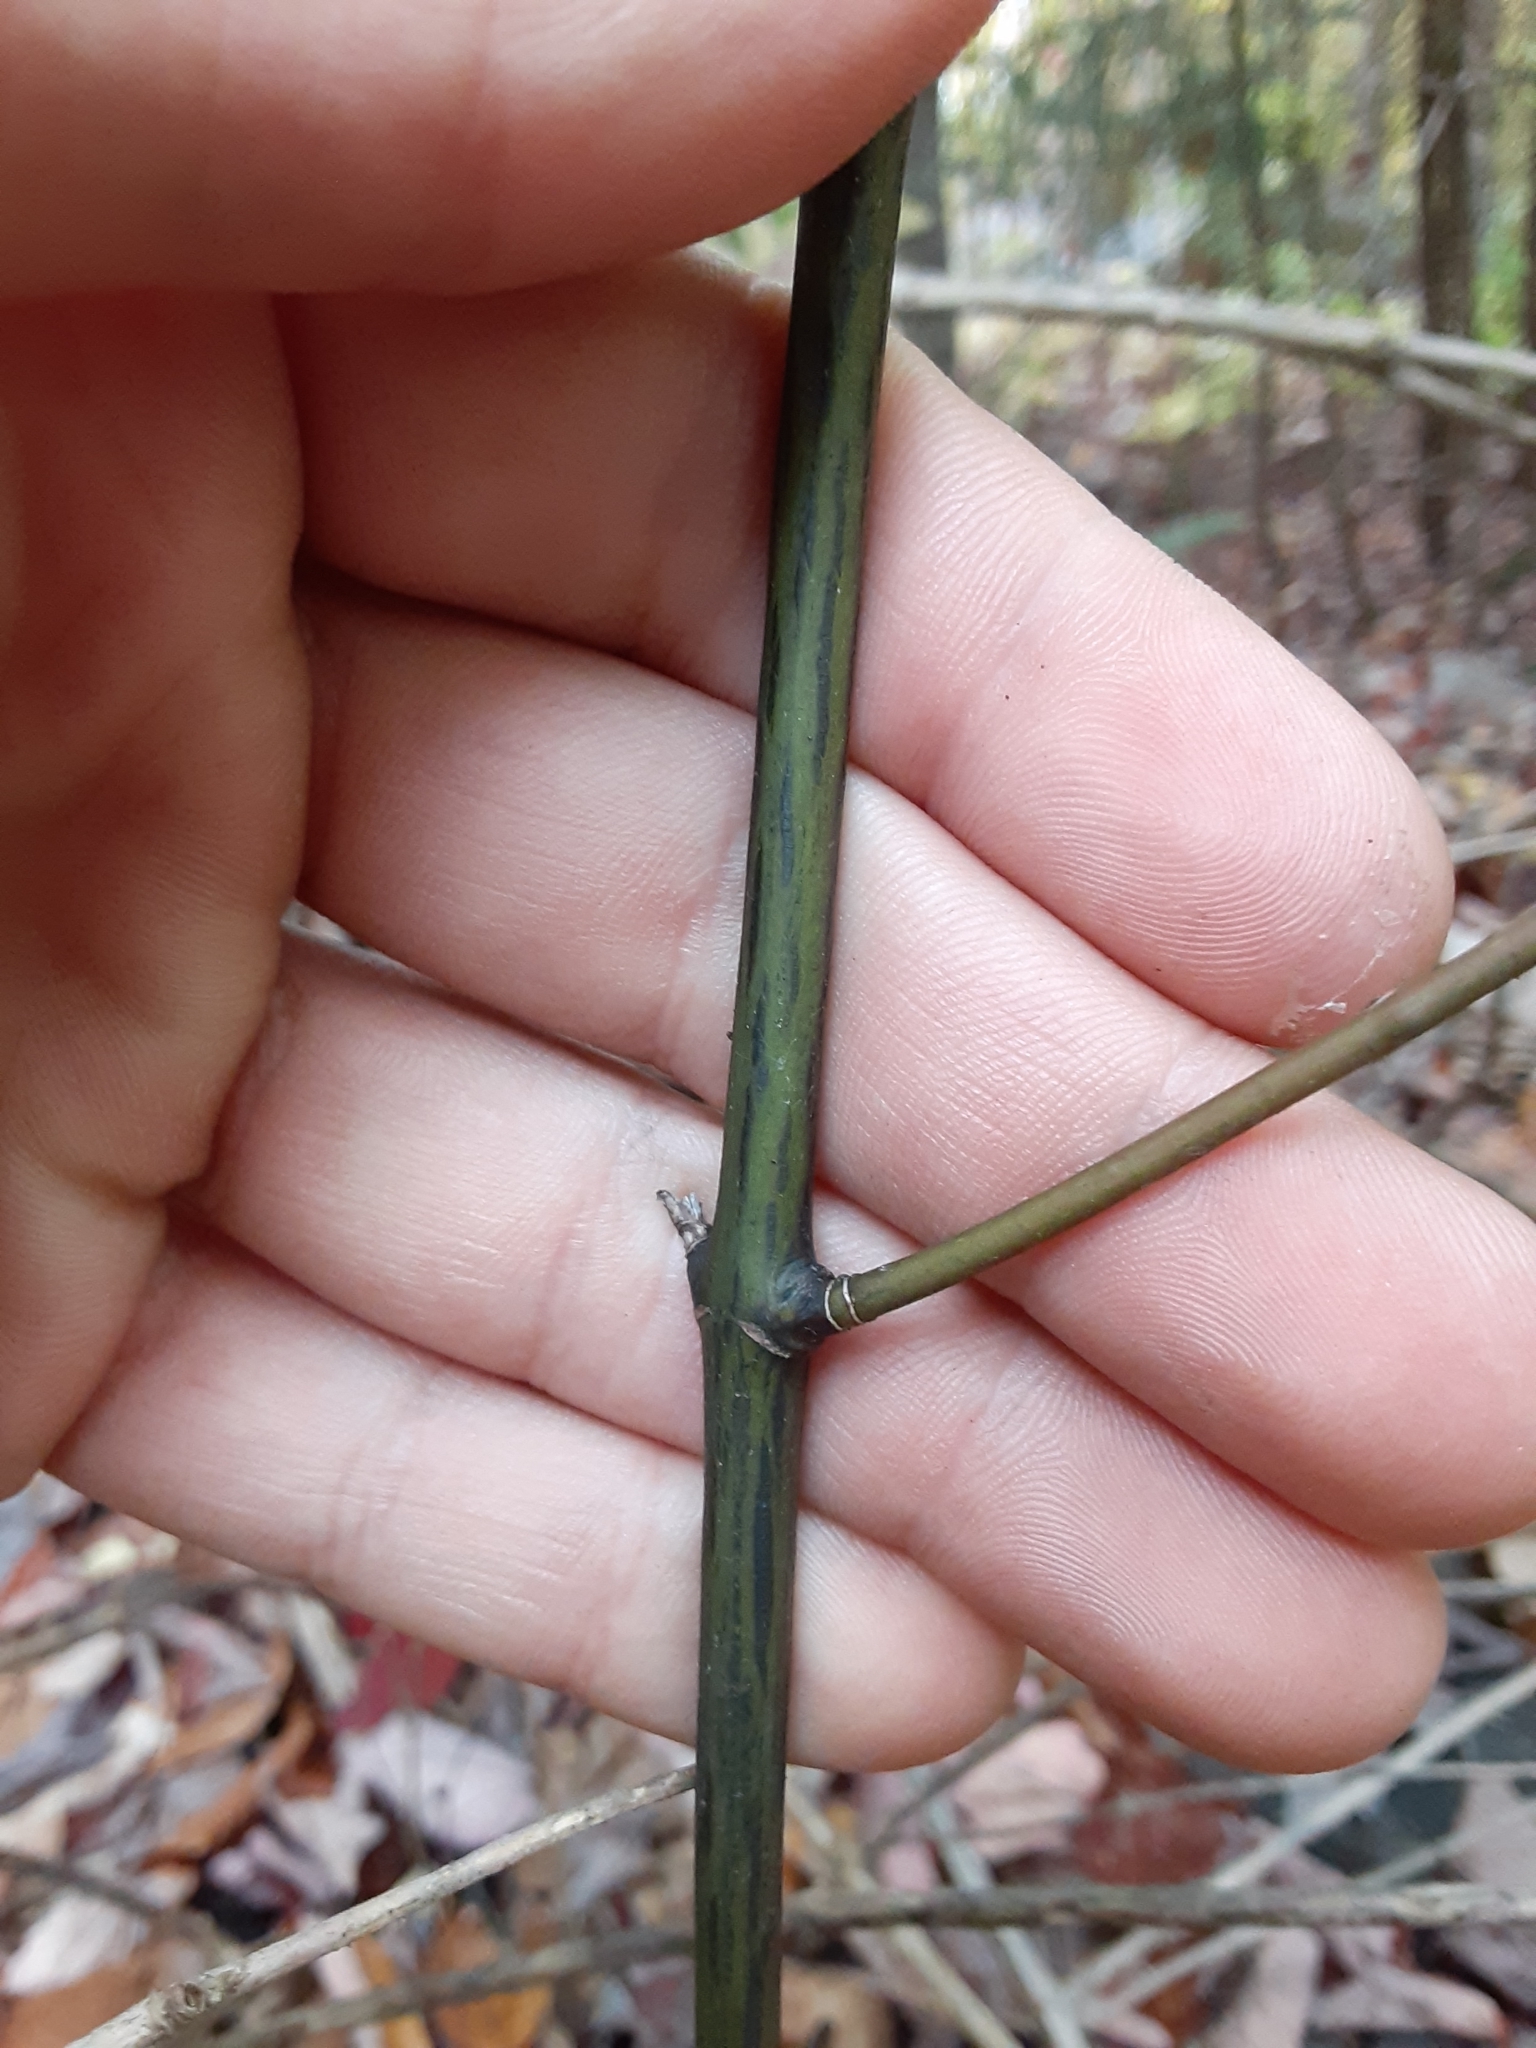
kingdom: Plantae
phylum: Tracheophyta
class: Magnoliopsida
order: Sapindales
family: Sapindaceae
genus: Acer
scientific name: Acer pensylvanicum
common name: Moosewood
